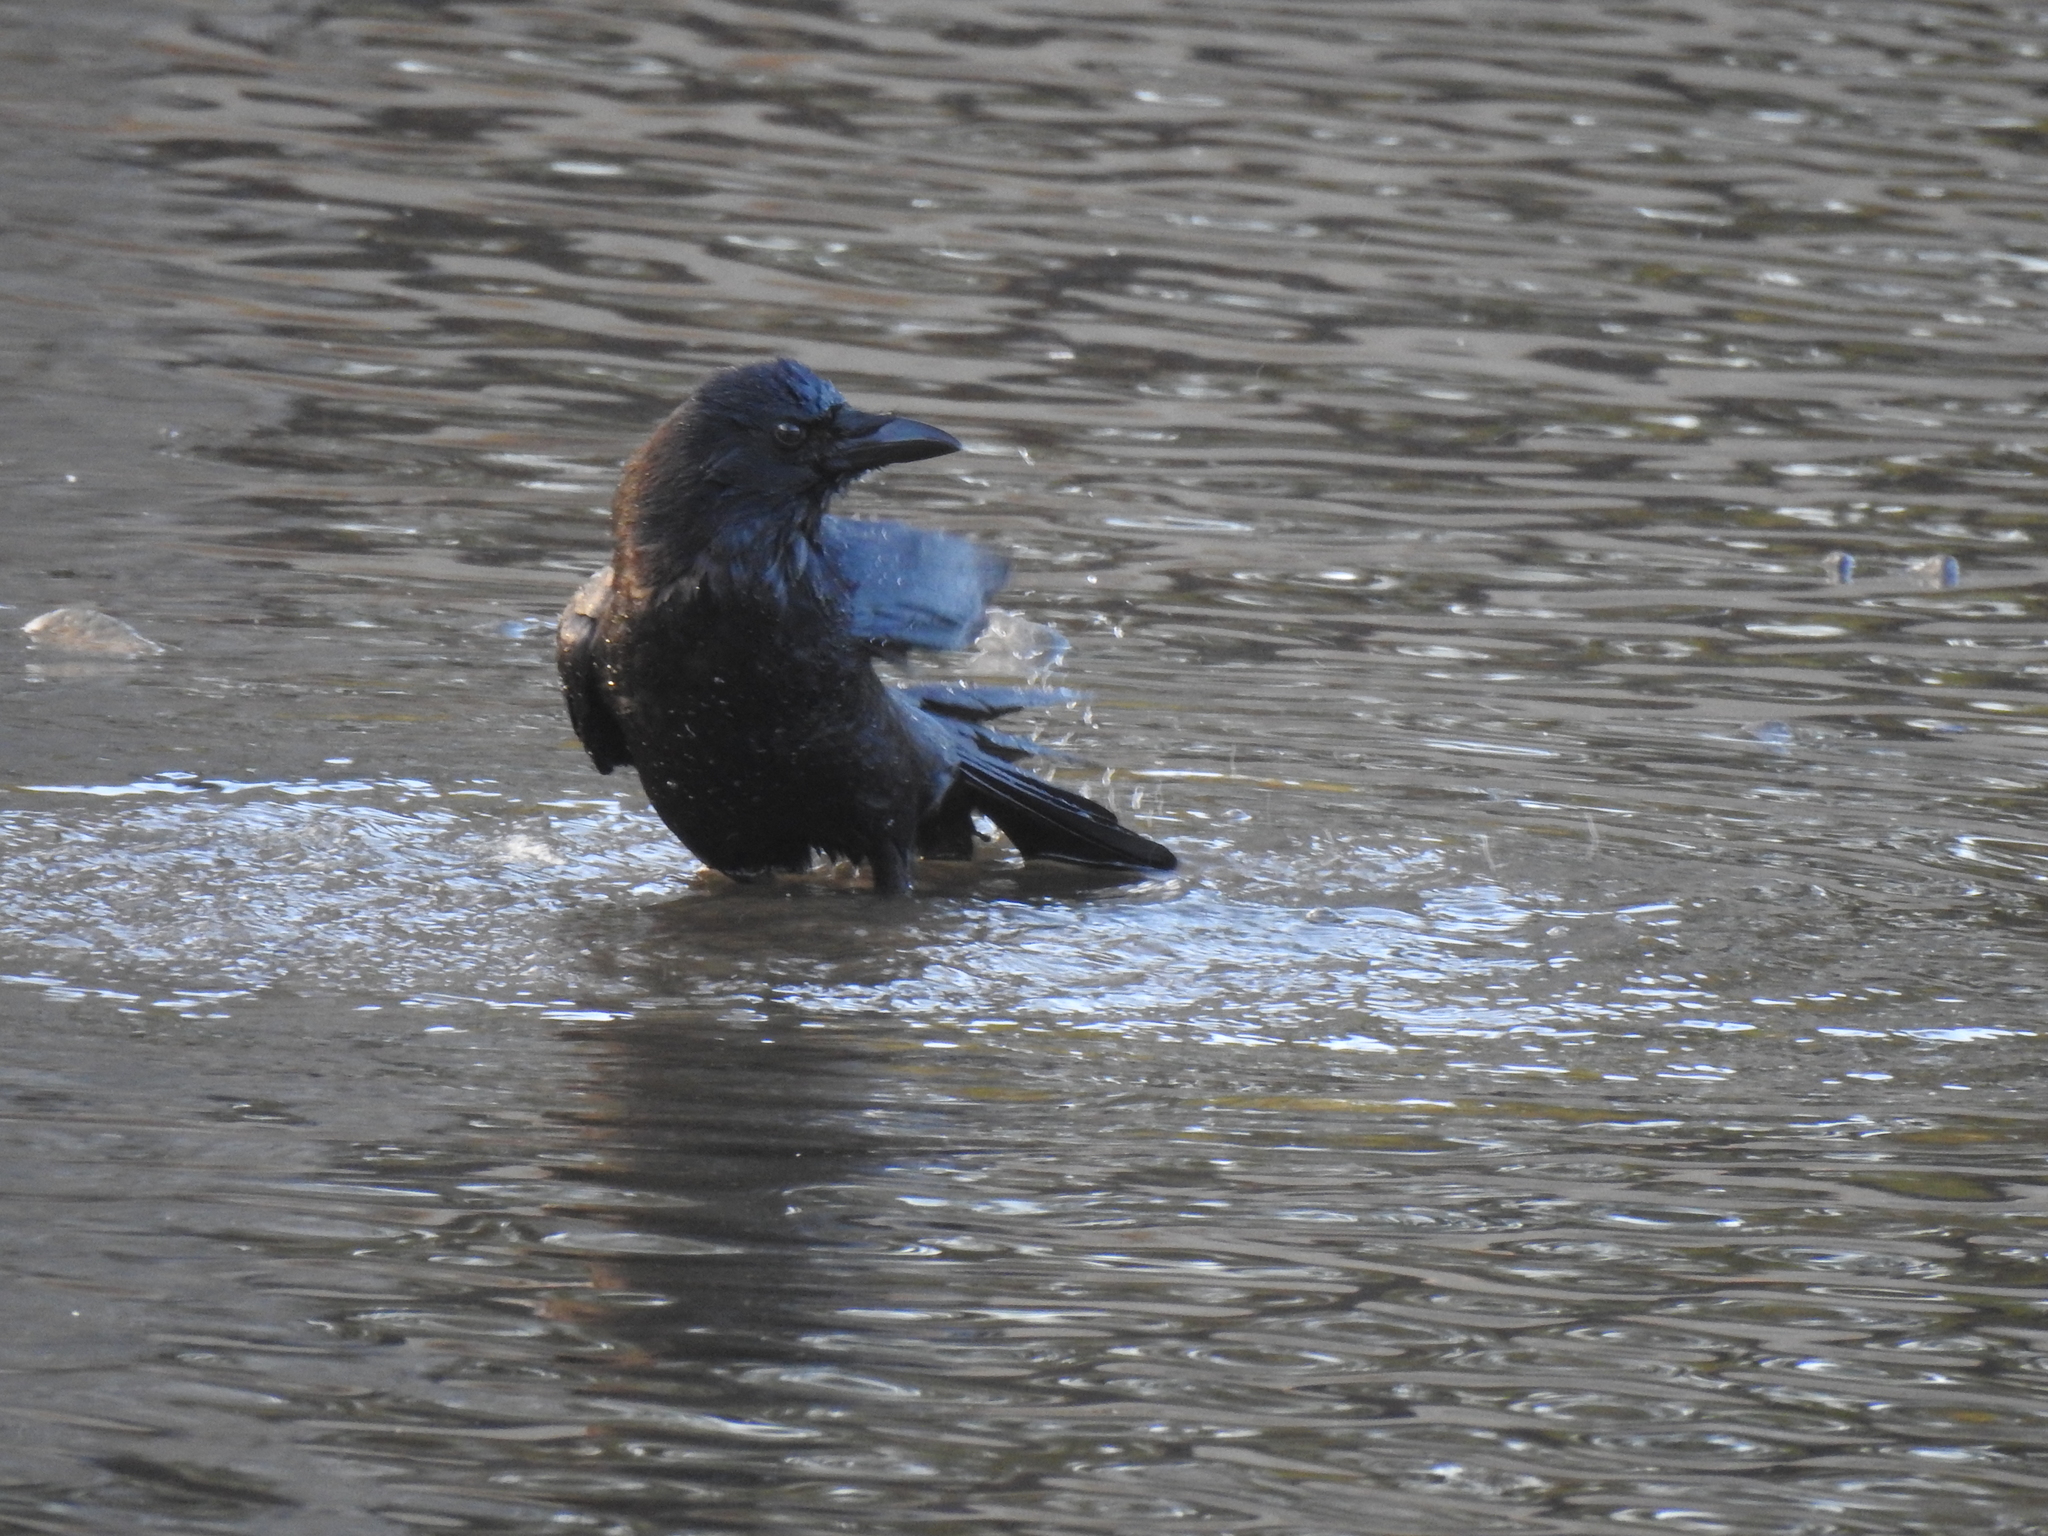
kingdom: Animalia
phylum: Chordata
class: Aves
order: Passeriformes
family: Corvidae
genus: Corvus
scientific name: Corvus brachyrhynchos
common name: American crow
